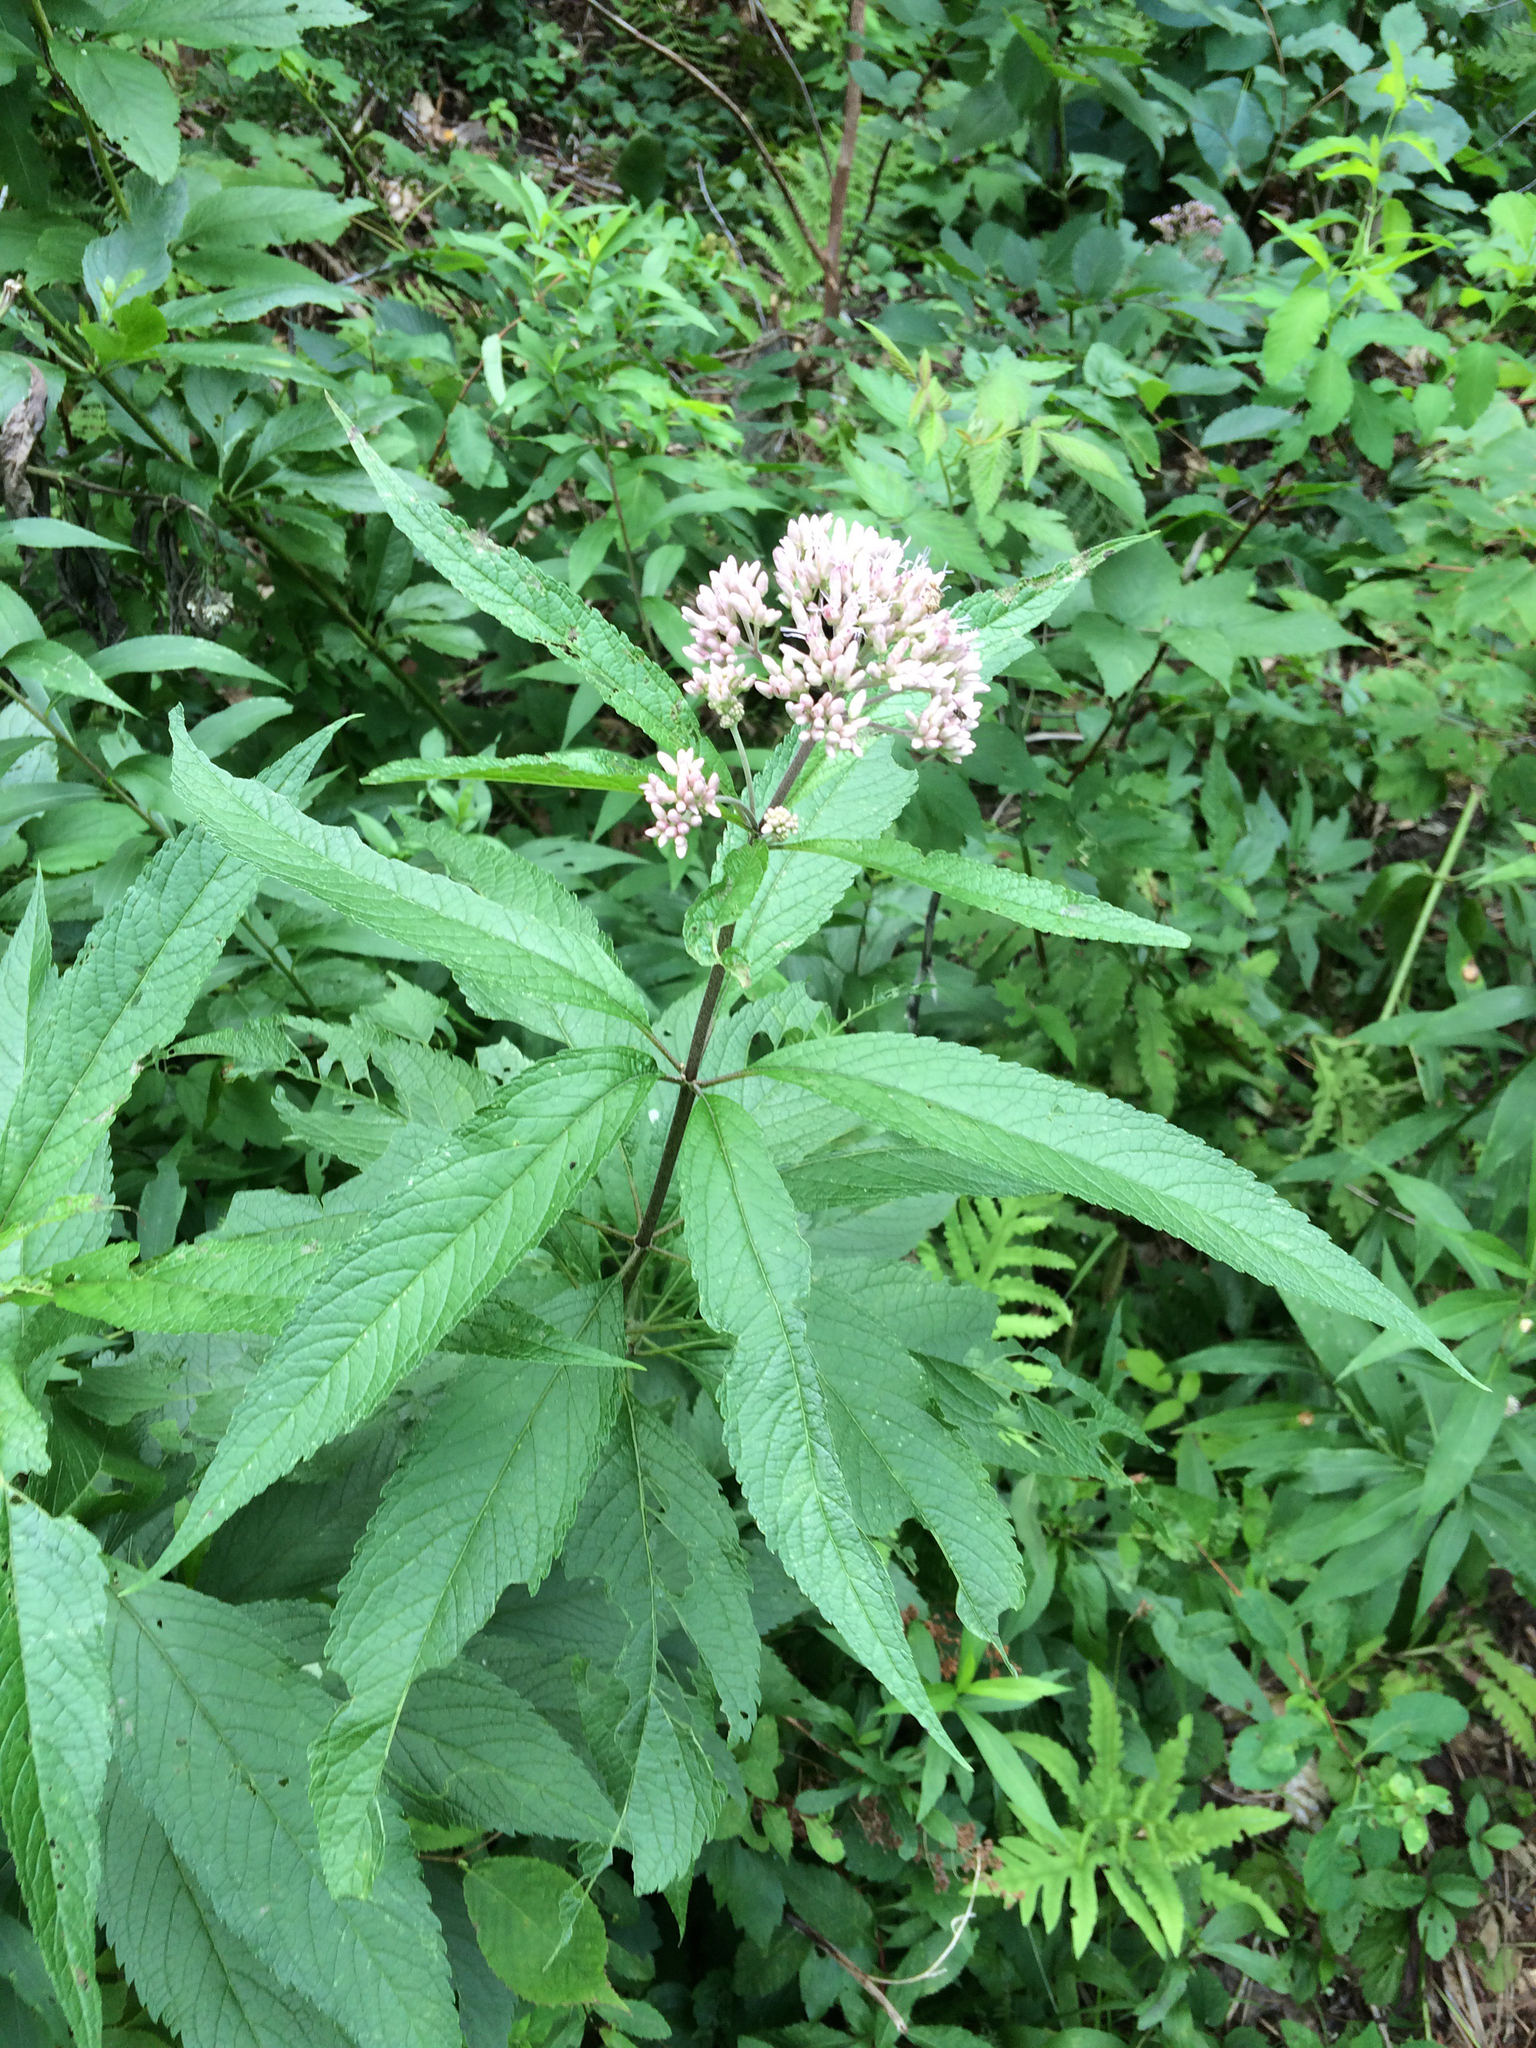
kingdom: Plantae
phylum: Tracheophyta
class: Magnoliopsida
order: Asterales
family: Asteraceae
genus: Eutrochium
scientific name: Eutrochium maculatum
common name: Spotted joe pye weed
